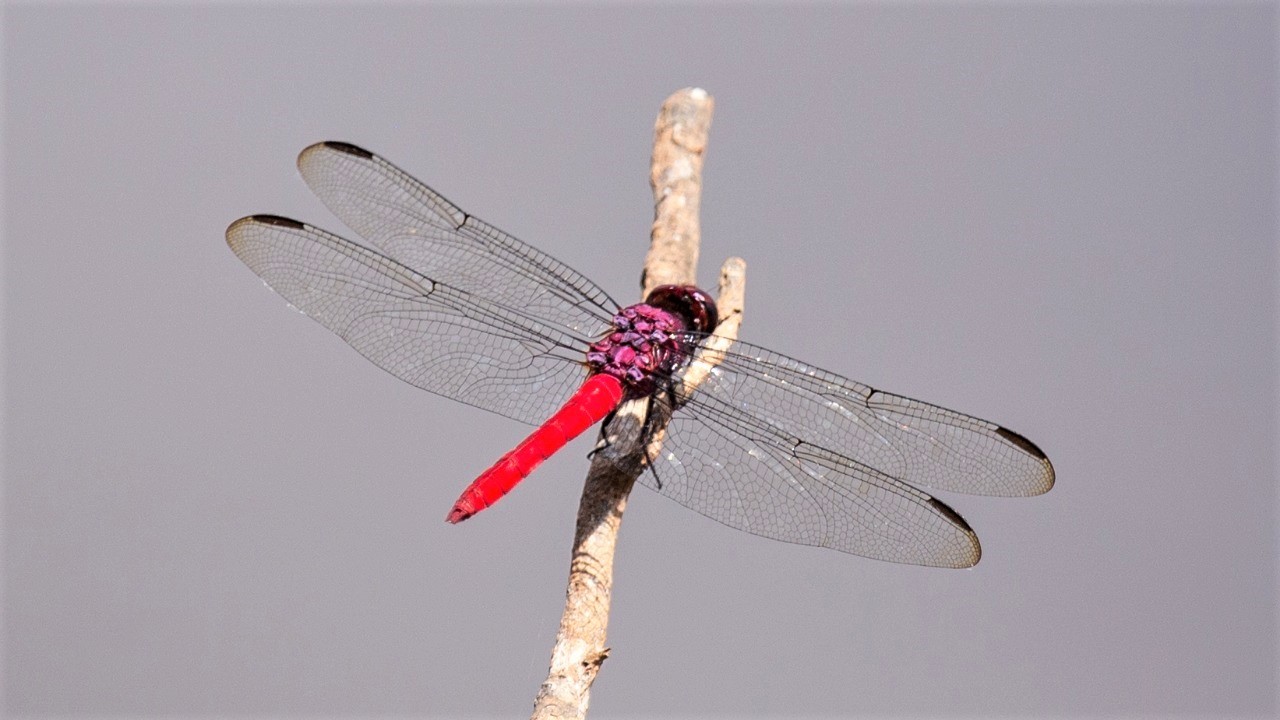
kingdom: Animalia
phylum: Arthropoda
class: Insecta
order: Odonata
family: Libellulidae
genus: Orthemis
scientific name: Orthemis schmidti
